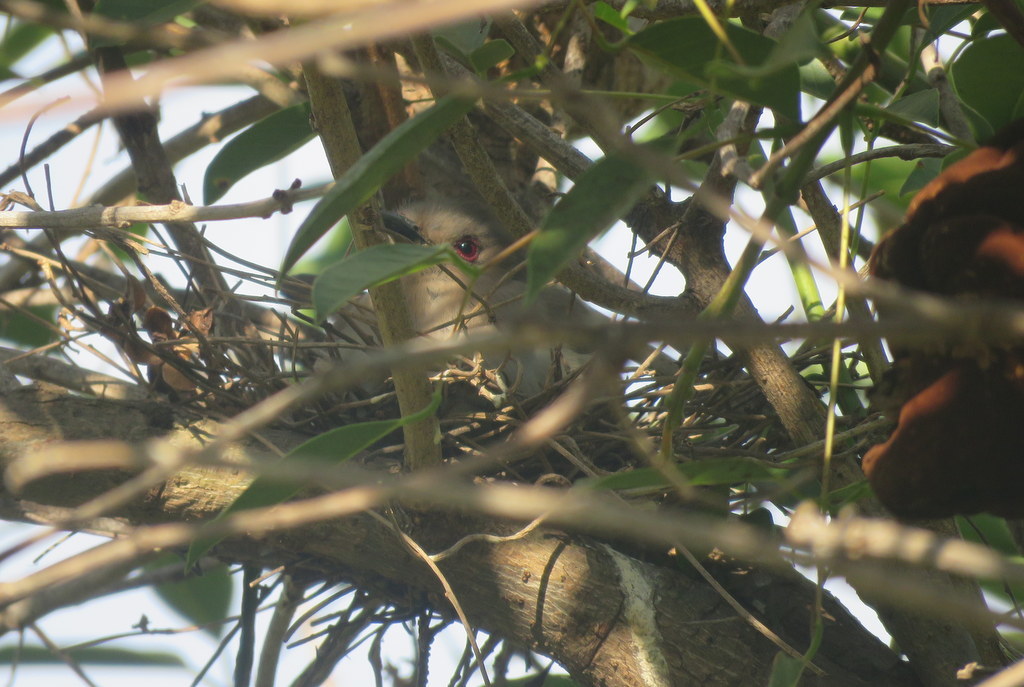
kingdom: Animalia
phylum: Chordata
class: Aves
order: Cuculiformes
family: Cuculidae
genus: Coccyzus
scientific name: Coccyzus cinereus
